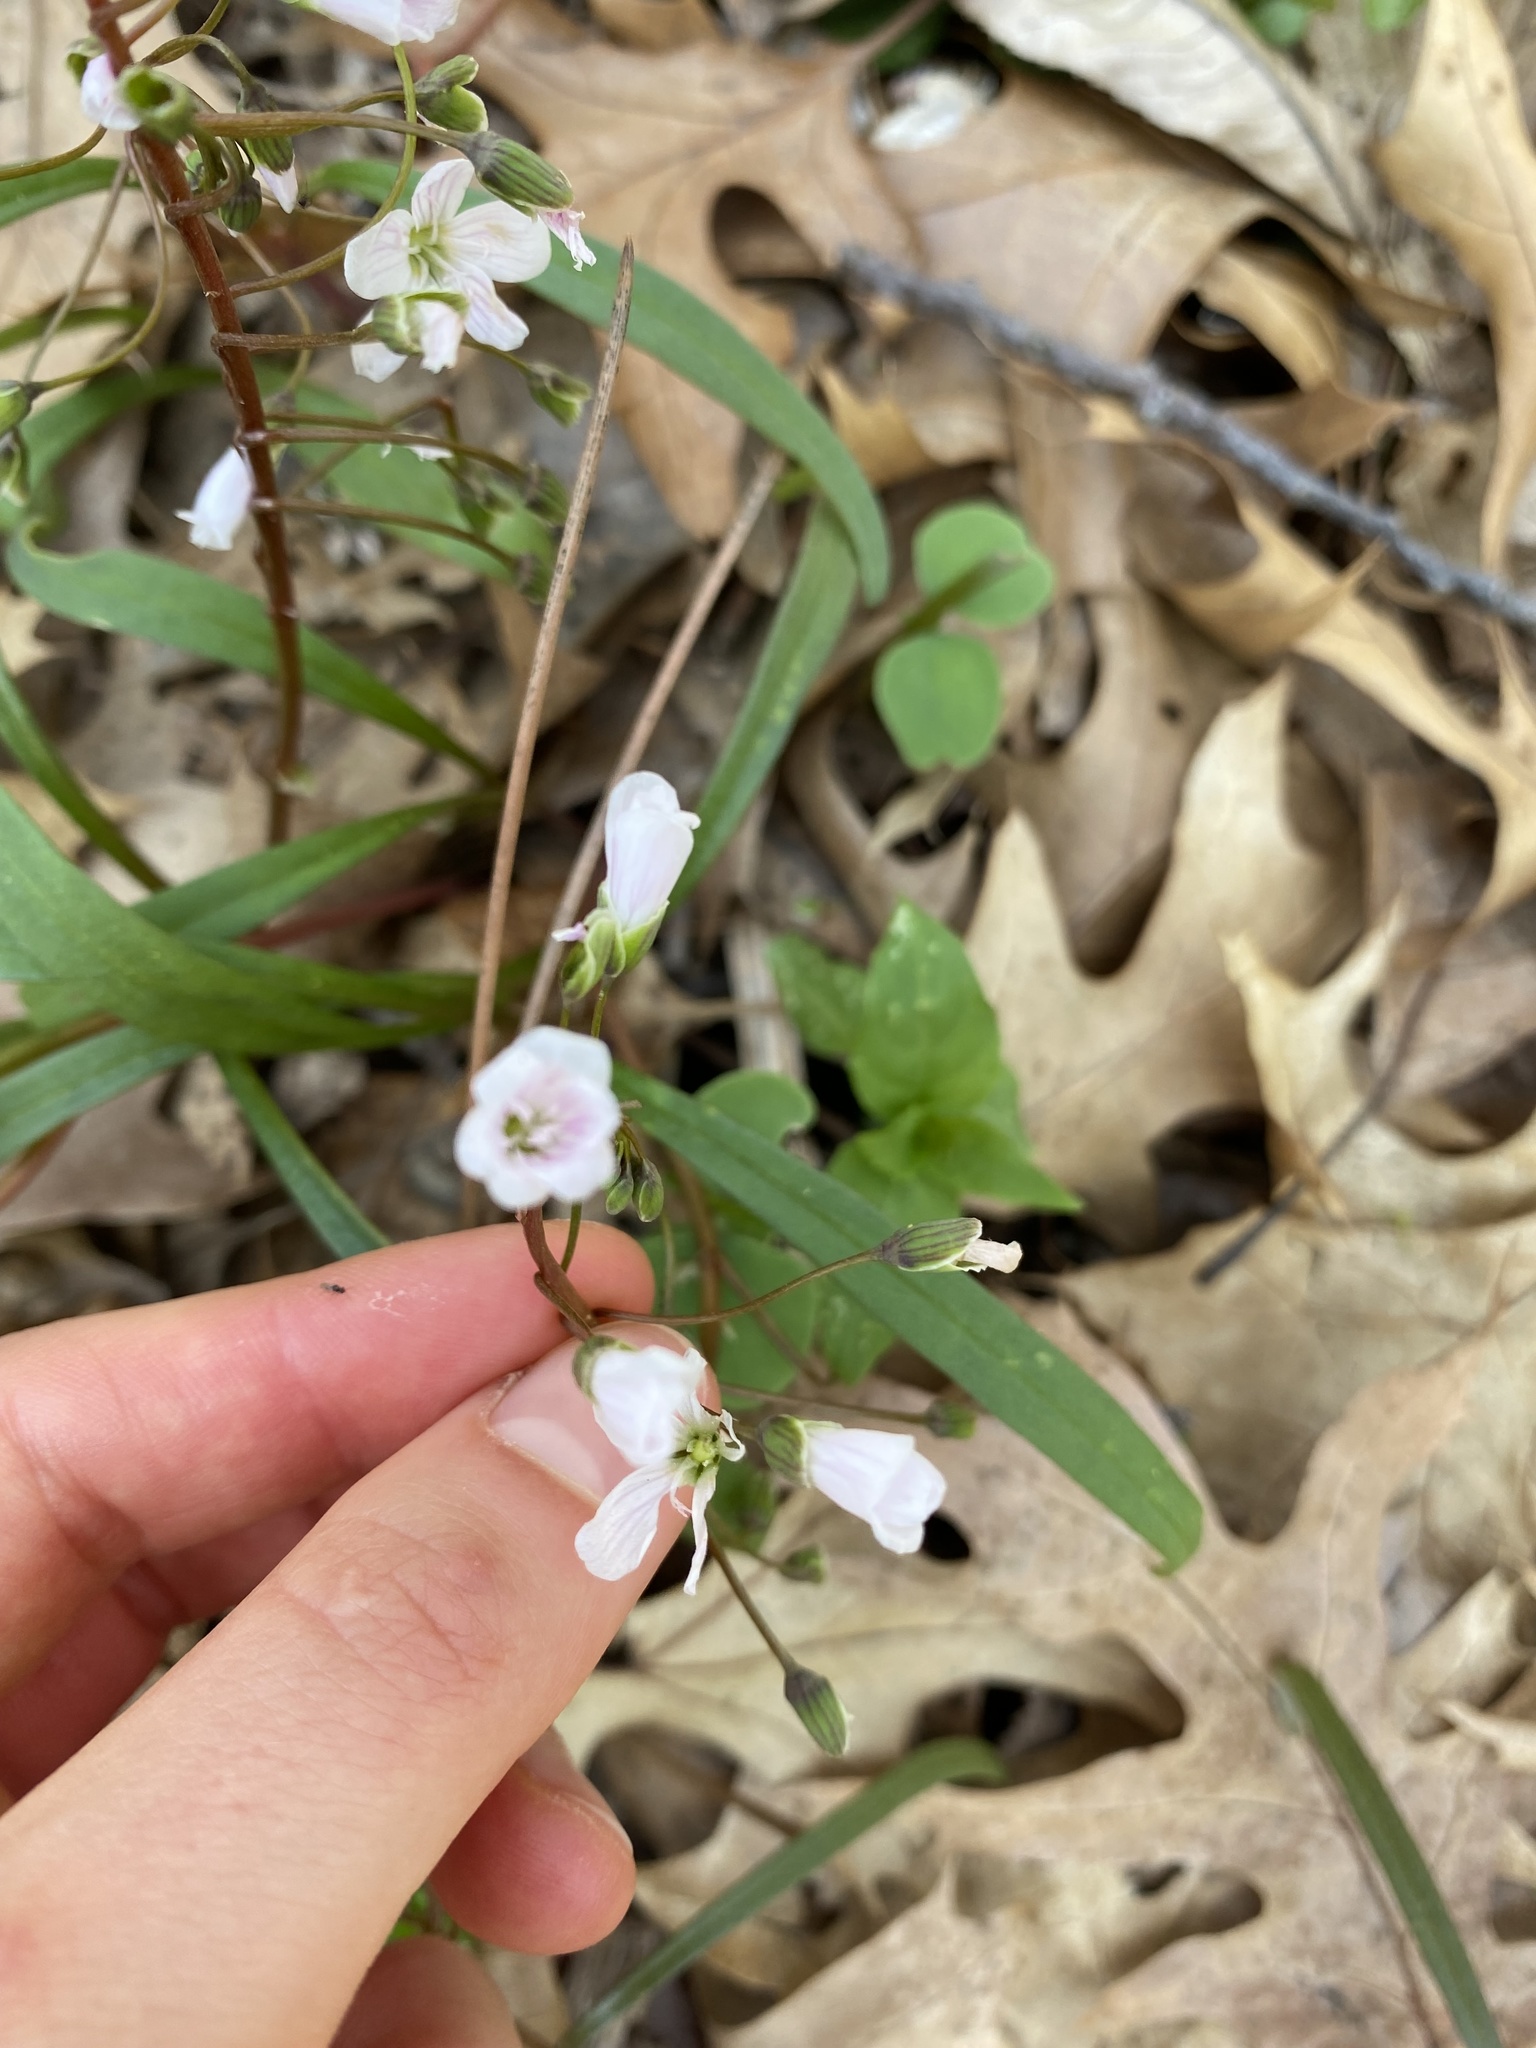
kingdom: Plantae
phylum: Tracheophyta
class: Magnoliopsida
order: Caryophyllales
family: Montiaceae
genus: Claytonia
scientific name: Claytonia virginica
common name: Virginia springbeauty
